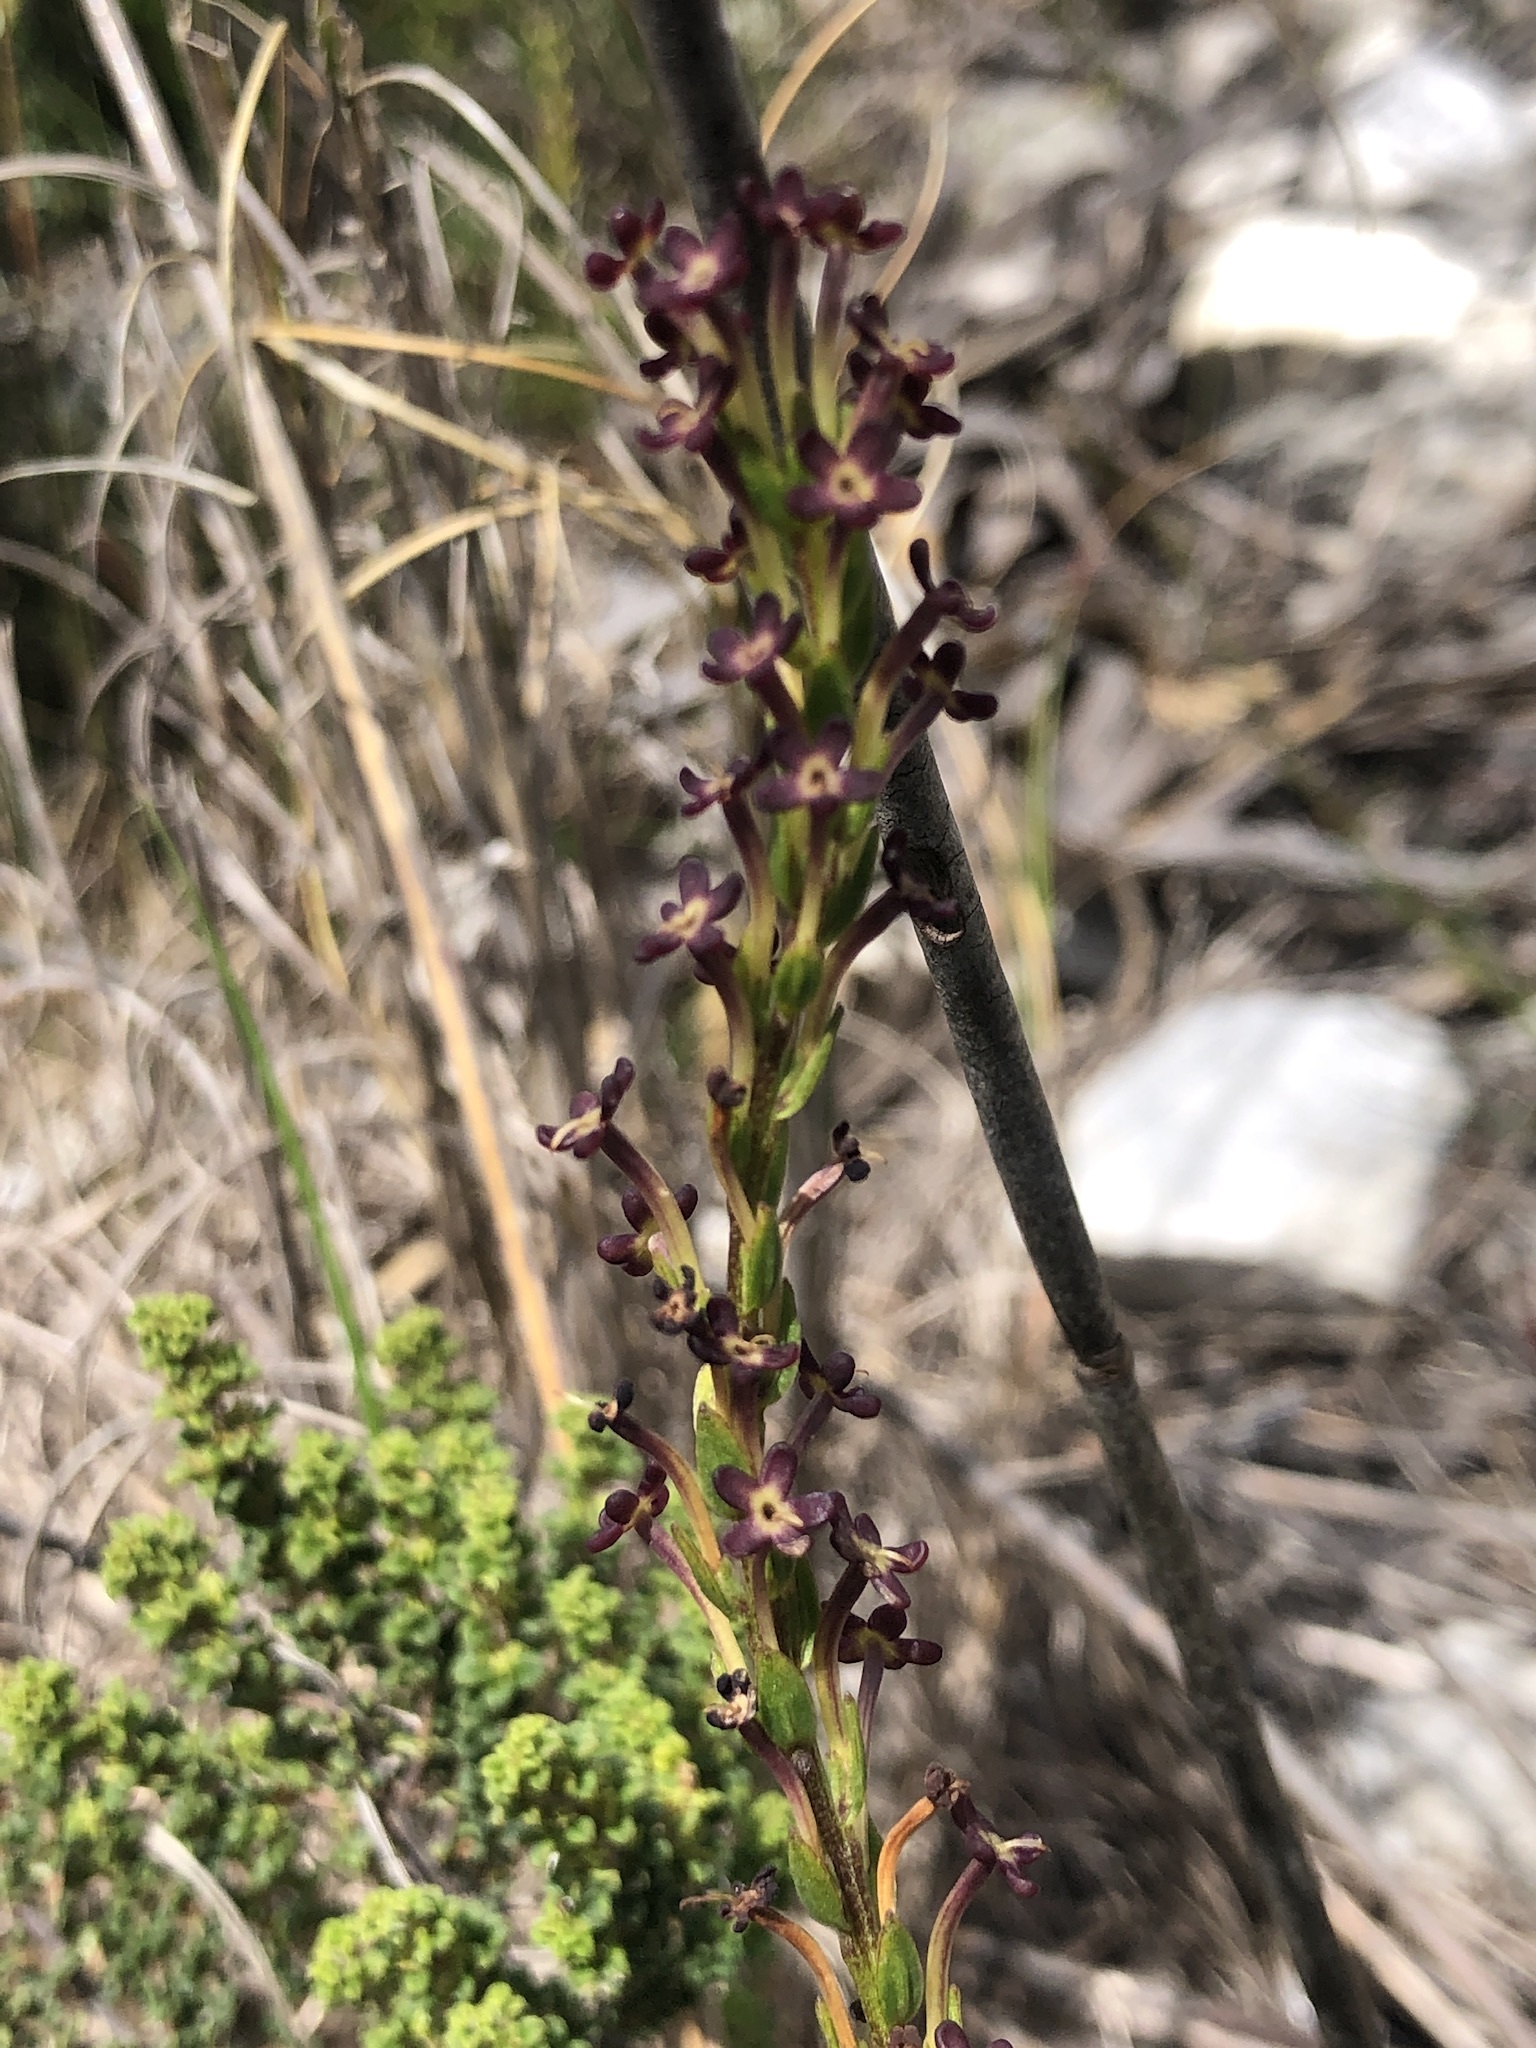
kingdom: Plantae
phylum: Tracheophyta
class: Magnoliopsida
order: Lamiales
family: Scrophulariaceae
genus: Microdon
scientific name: Microdon dubius
